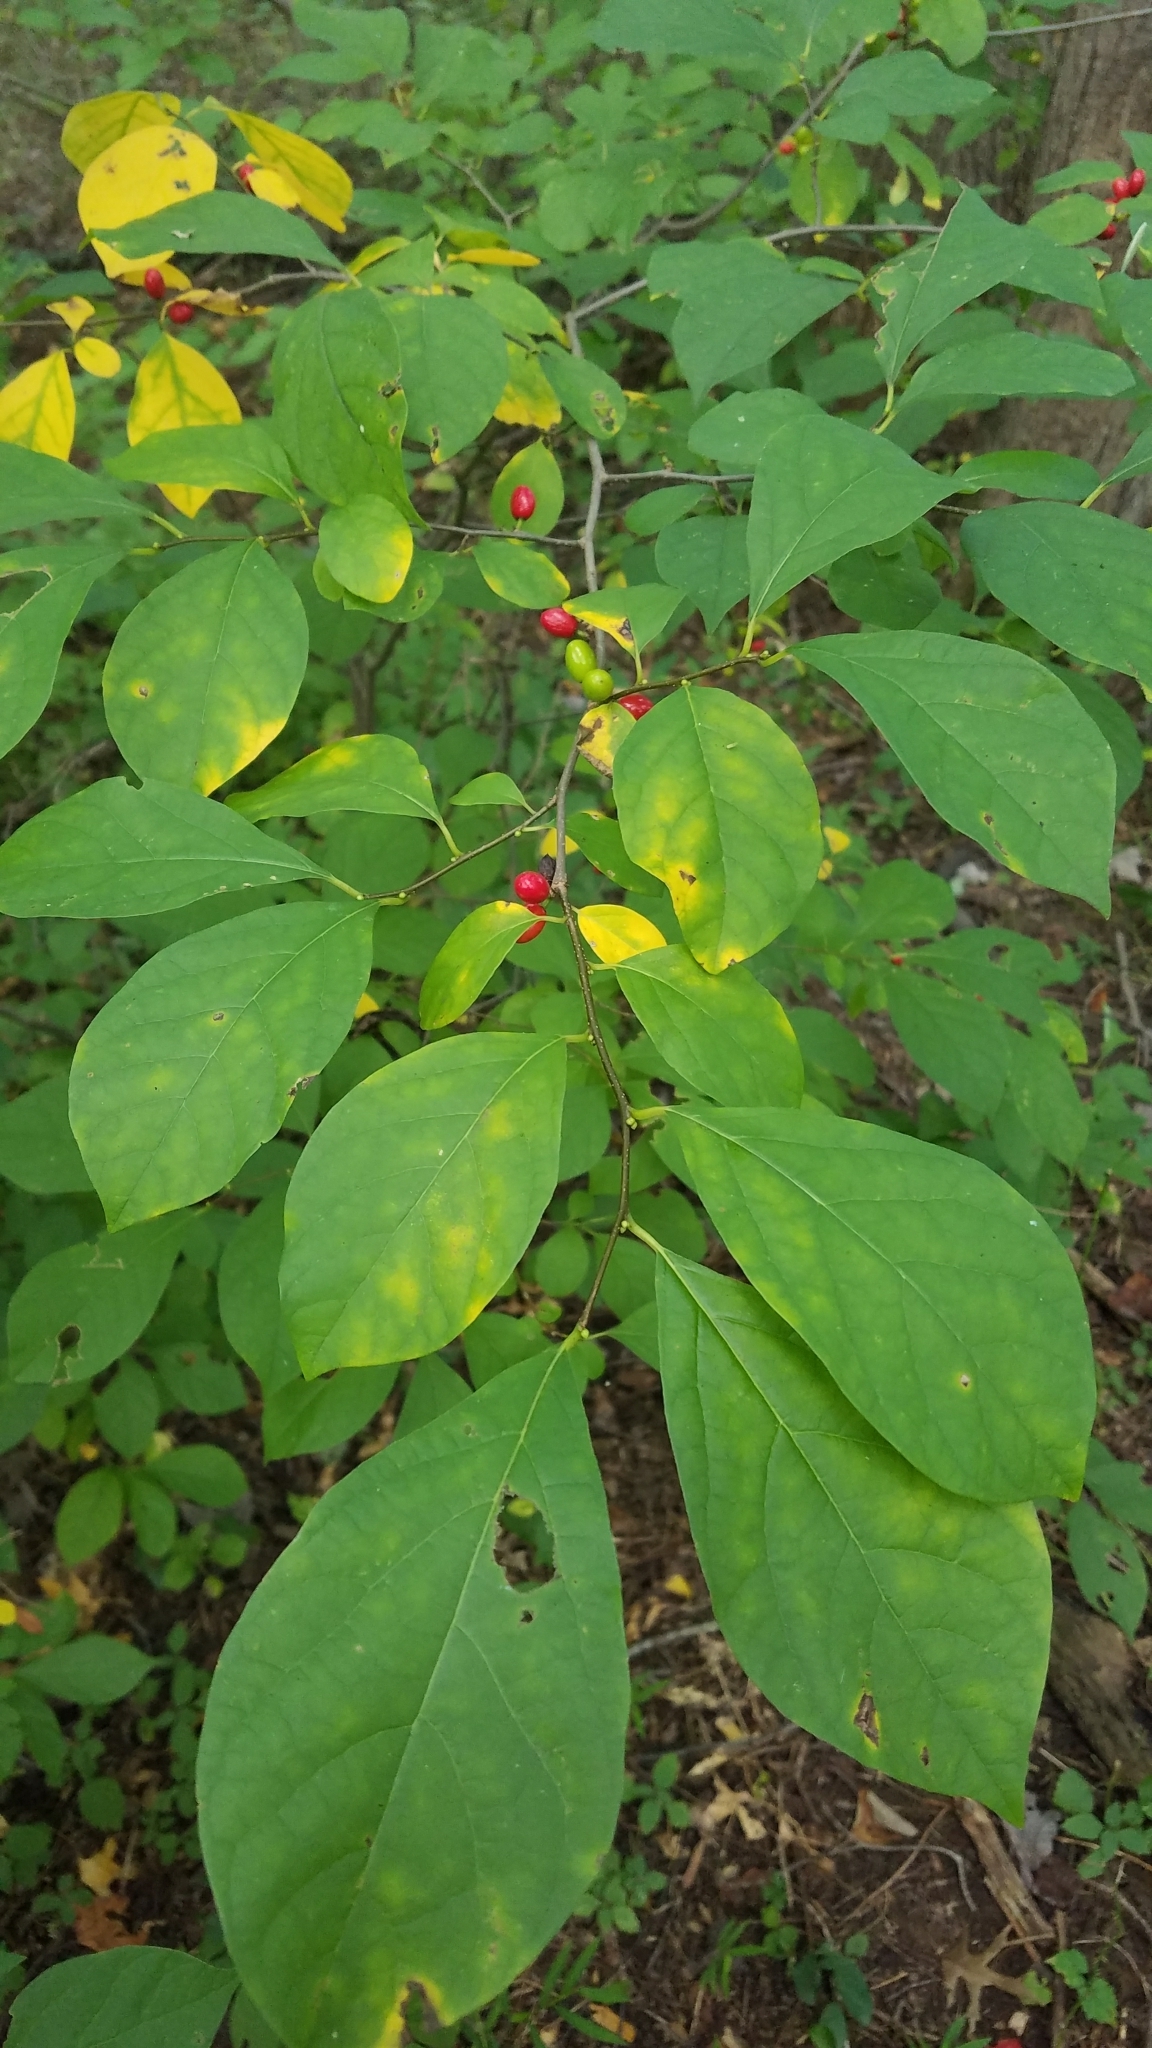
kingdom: Plantae
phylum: Tracheophyta
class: Magnoliopsida
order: Laurales
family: Lauraceae
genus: Lindera
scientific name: Lindera benzoin
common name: Spicebush
